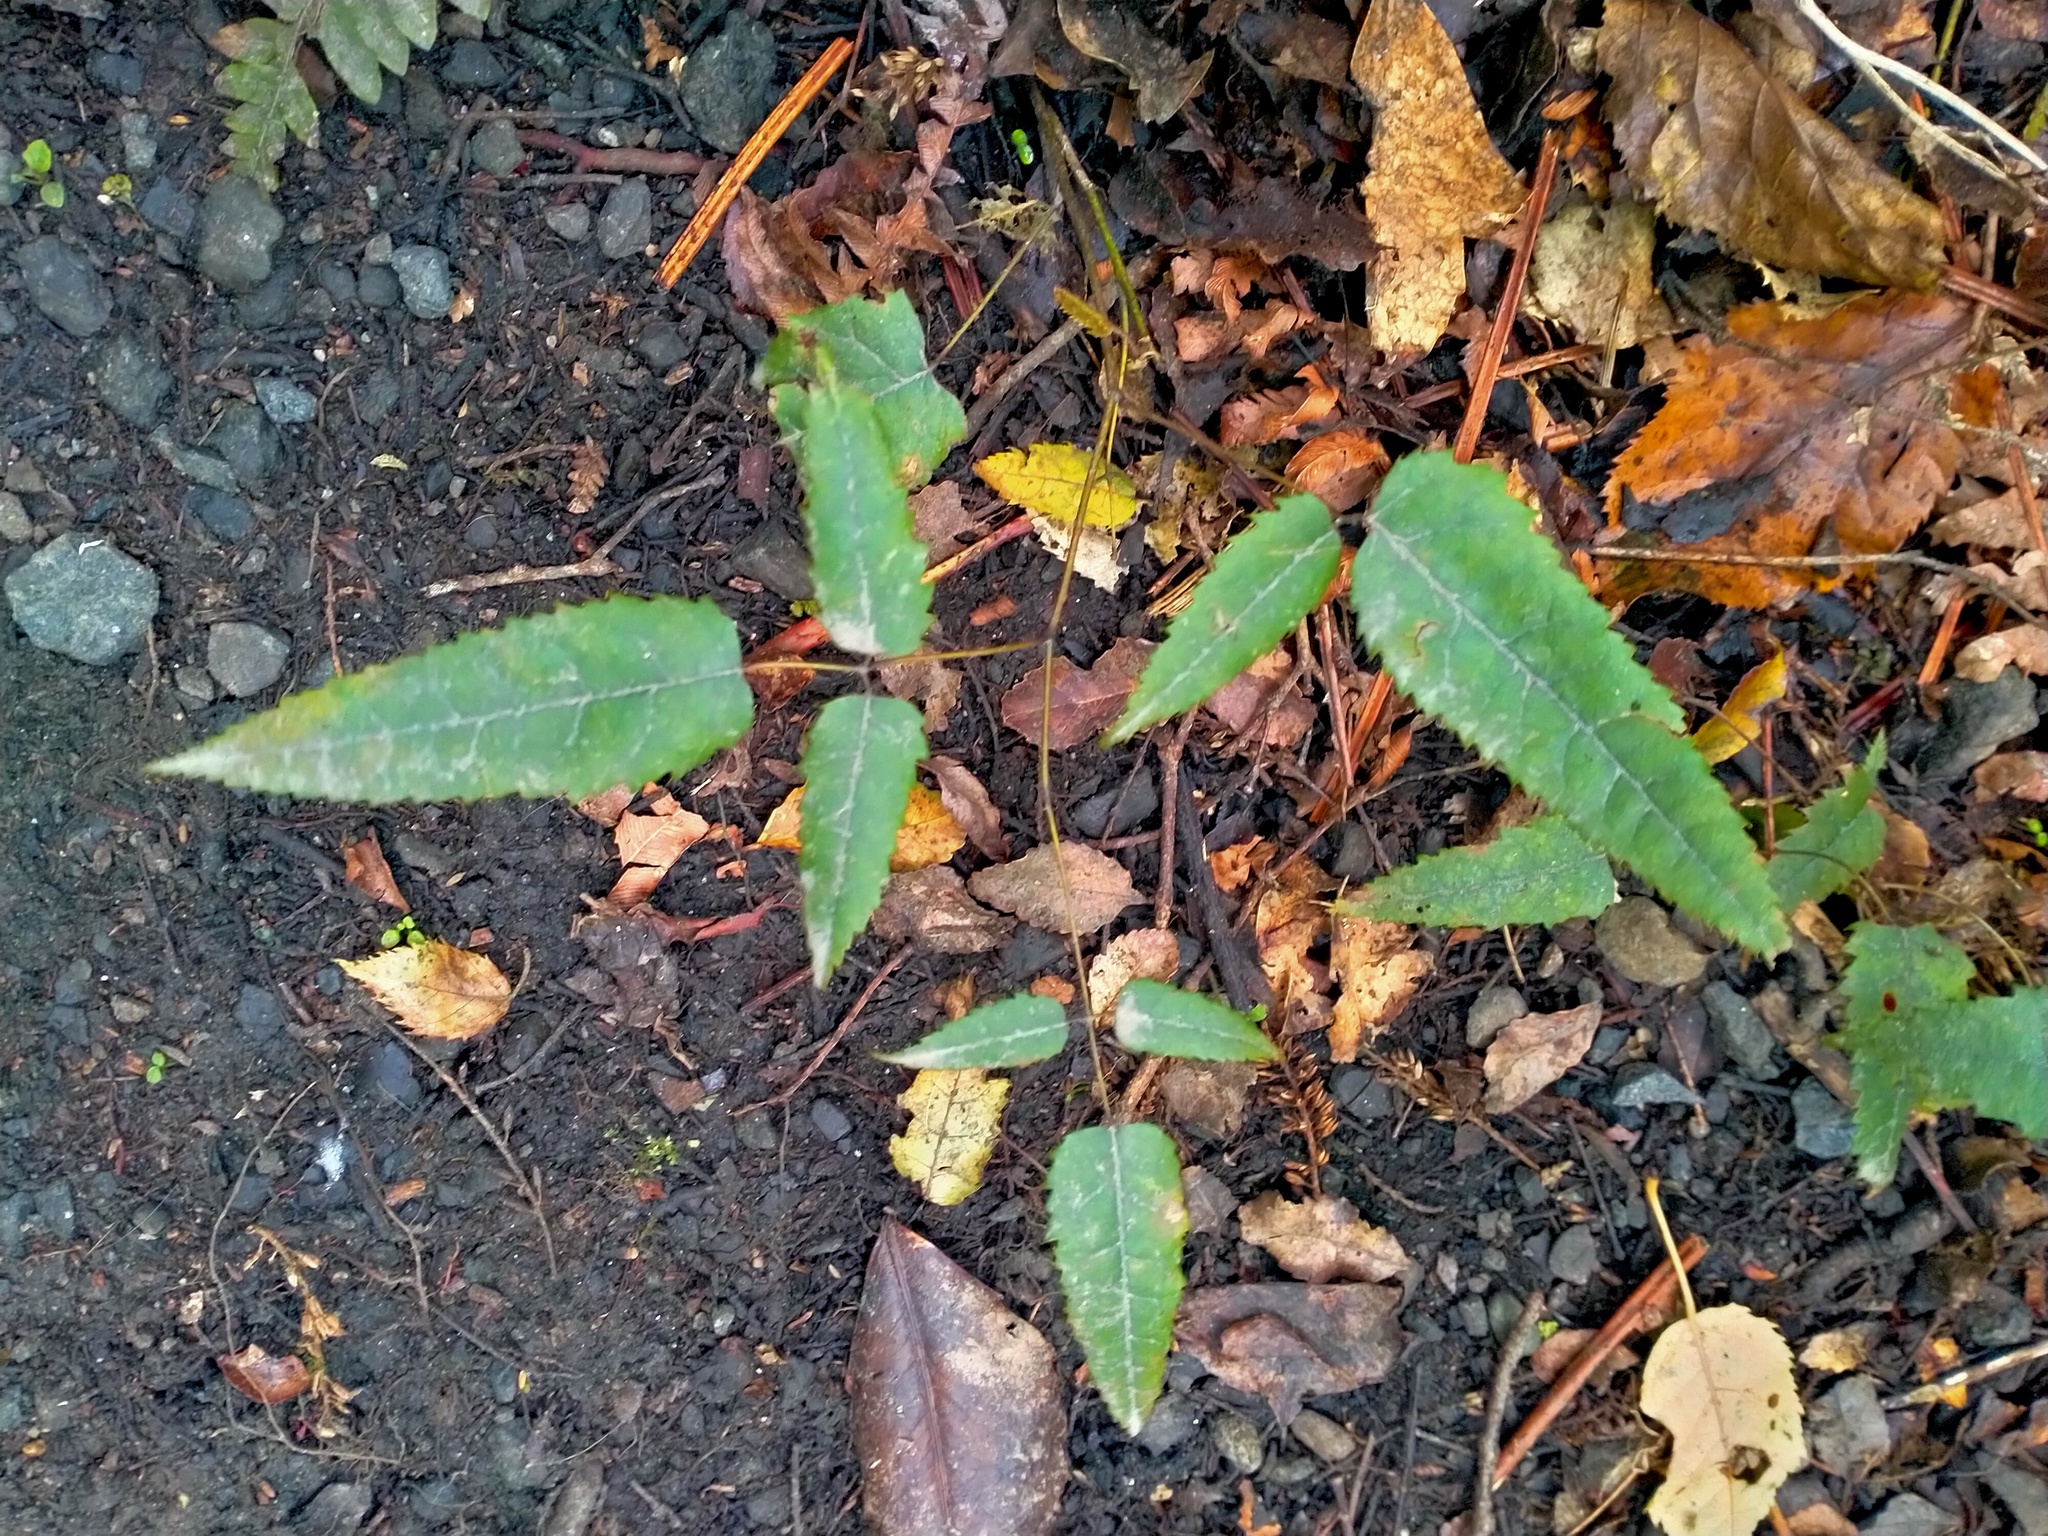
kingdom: Plantae
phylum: Tracheophyta
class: Magnoliopsida
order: Rosales
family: Rosaceae
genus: Rubus
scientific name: Rubus schmidelioides
